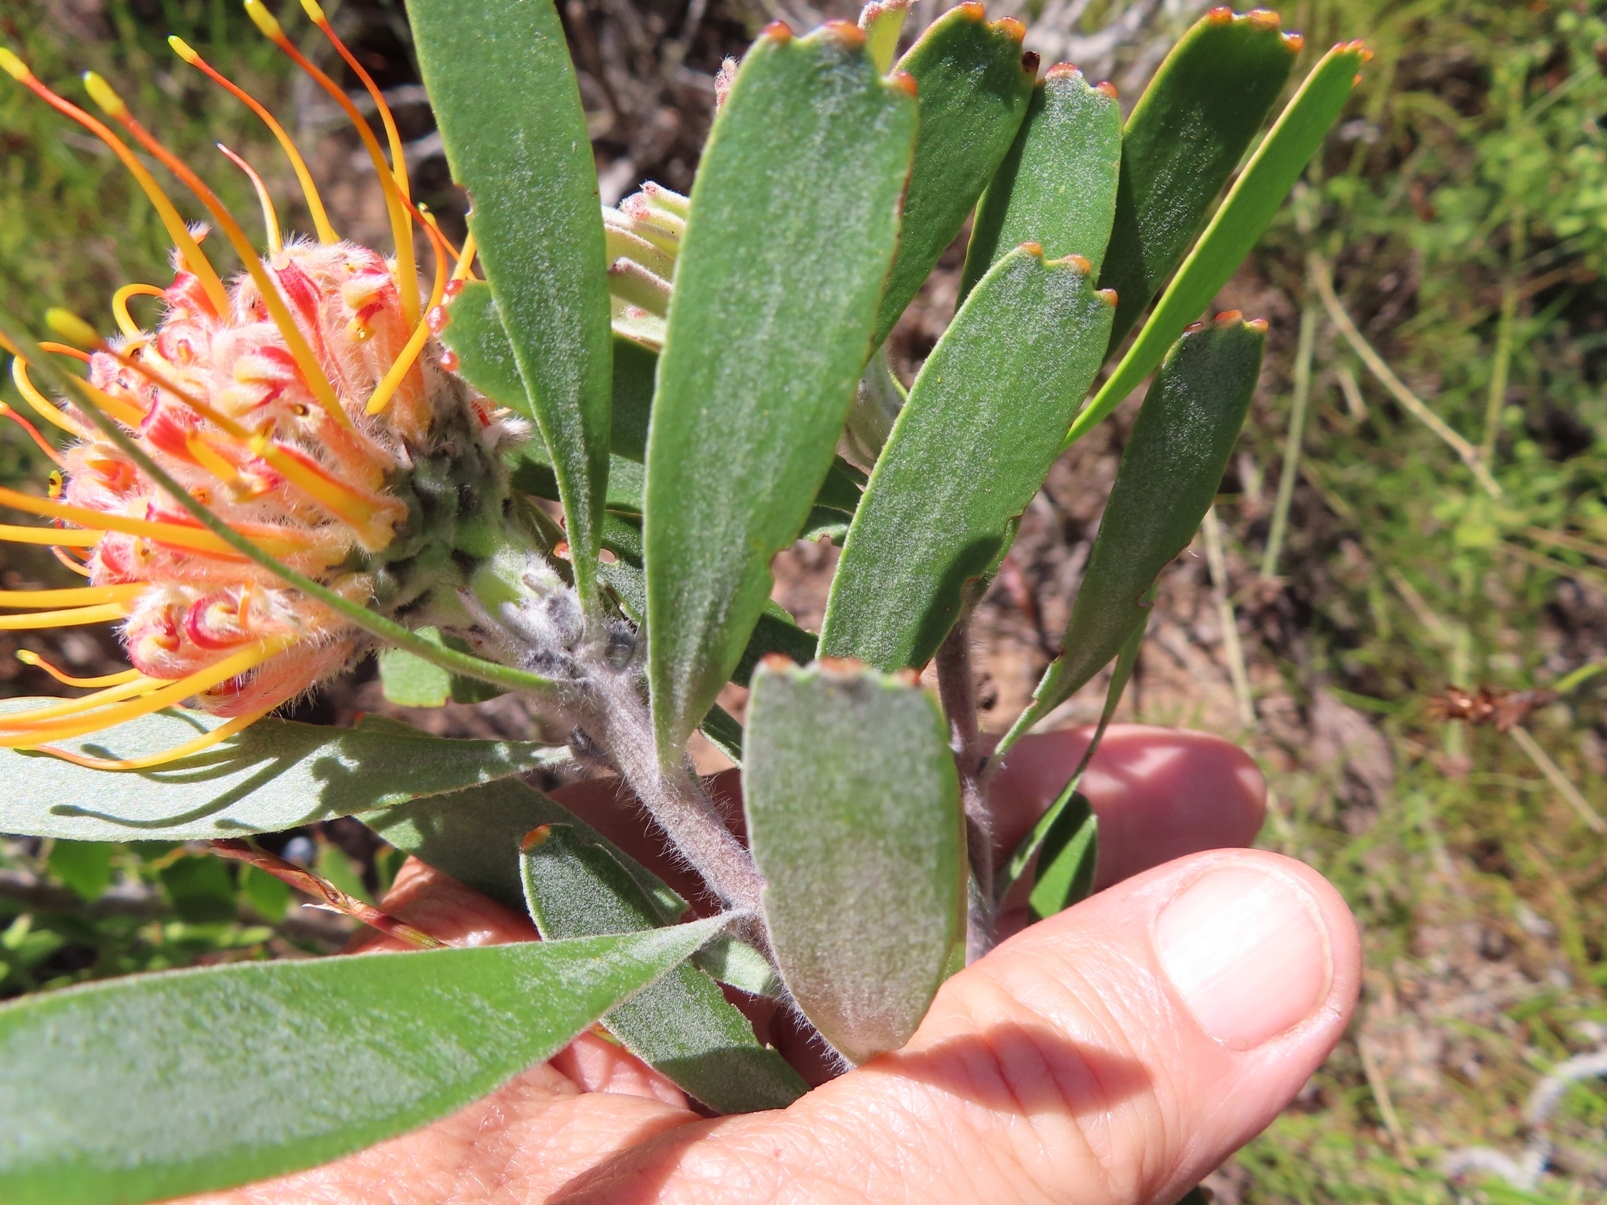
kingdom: Plantae
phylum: Tracheophyta
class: Magnoliopsida
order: Proteales
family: Proteaceae
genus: Leucospermum
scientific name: Leucospermum truncatum
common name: Limestone pincushion
